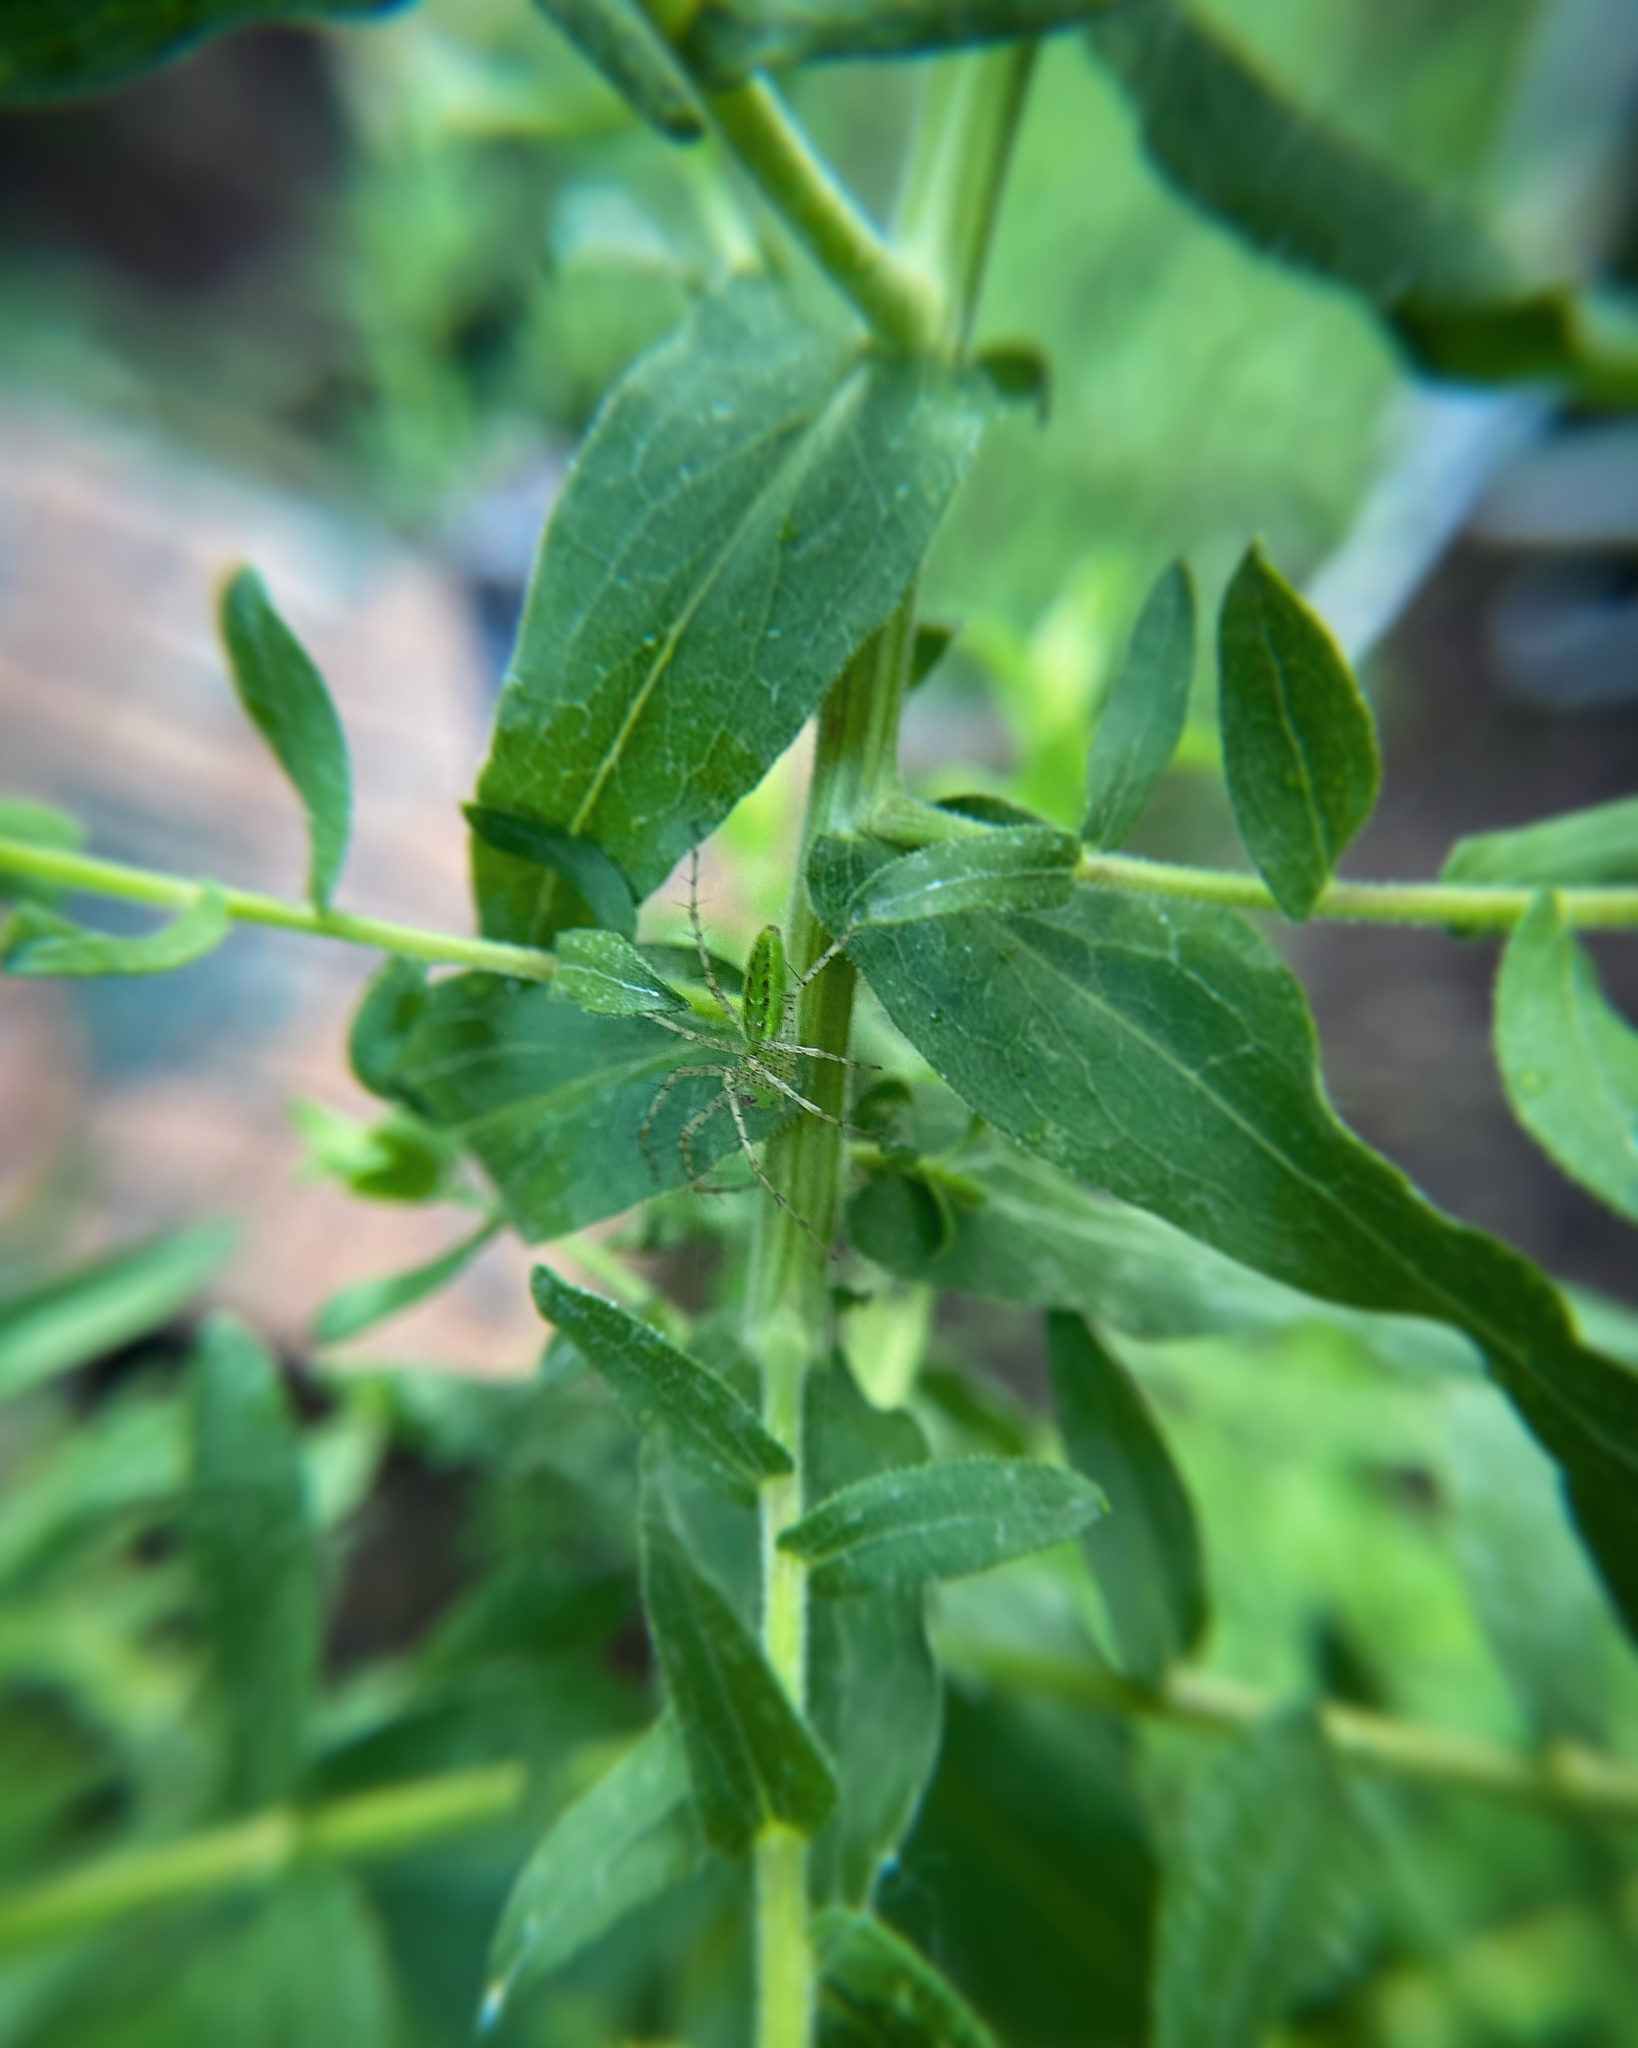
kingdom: Animalia
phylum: Arthropoda
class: Arachnida
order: Araneae
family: Oxyopidae
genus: Peucetia
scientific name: Peucetia viridans
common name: Lynx spiders
